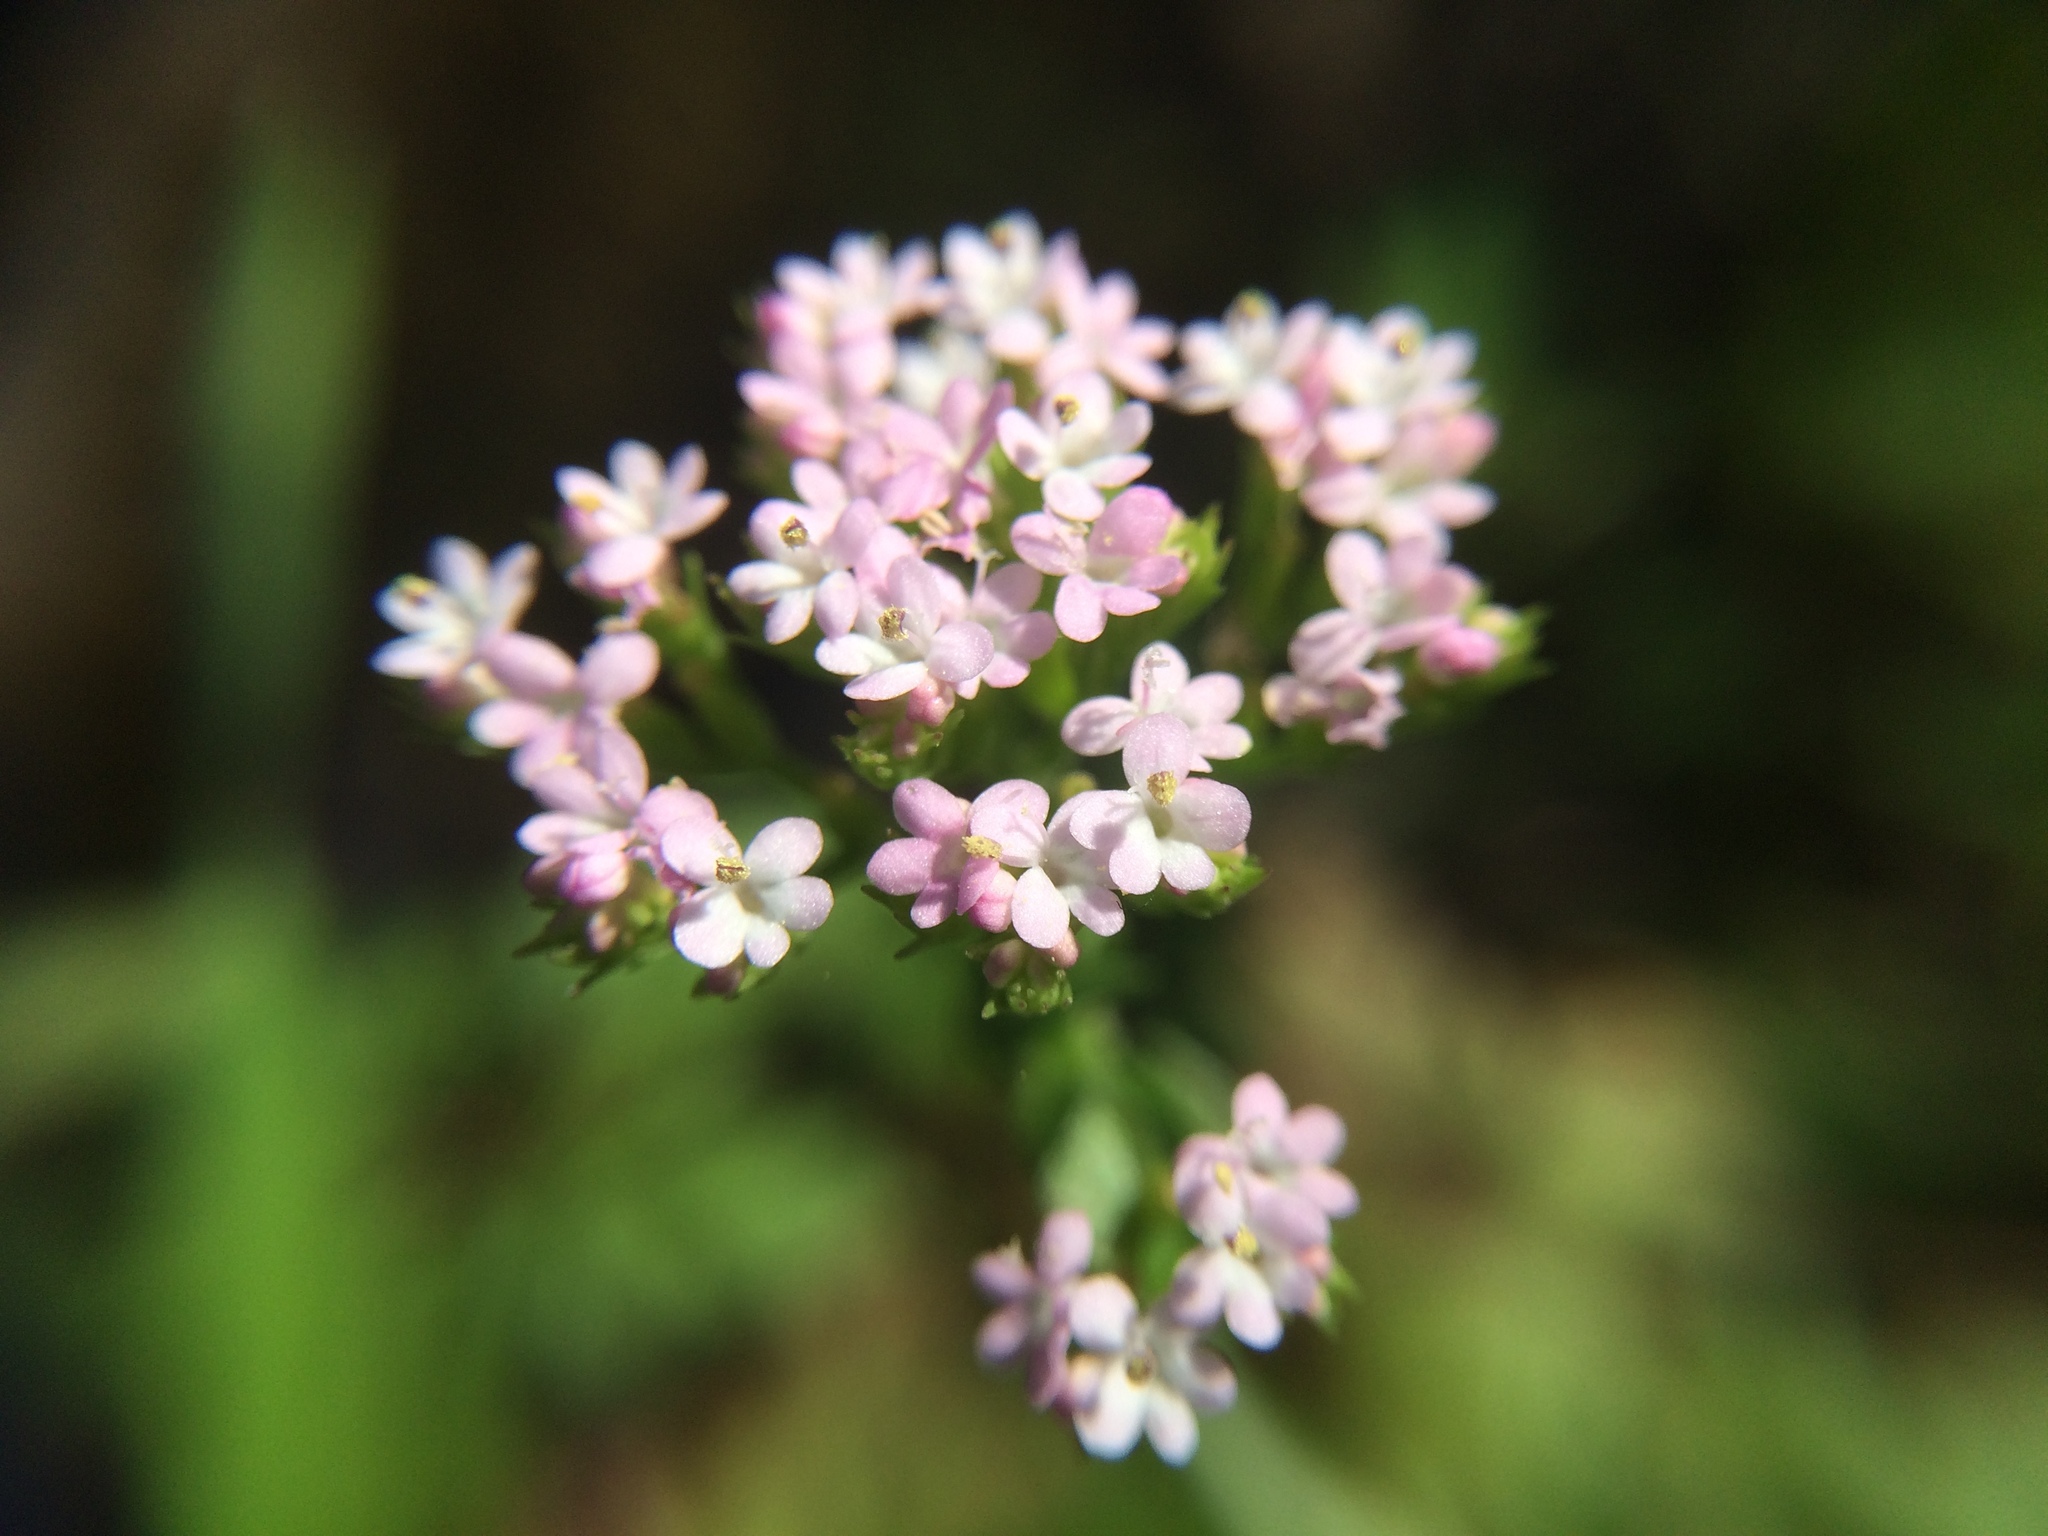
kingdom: Plantae
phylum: Tracheophyta
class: Magnoliopsida
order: Dipsacales
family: Caprifoliaceae
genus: Centranthus
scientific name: Centranthus calcitrapae
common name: Annual valerian
